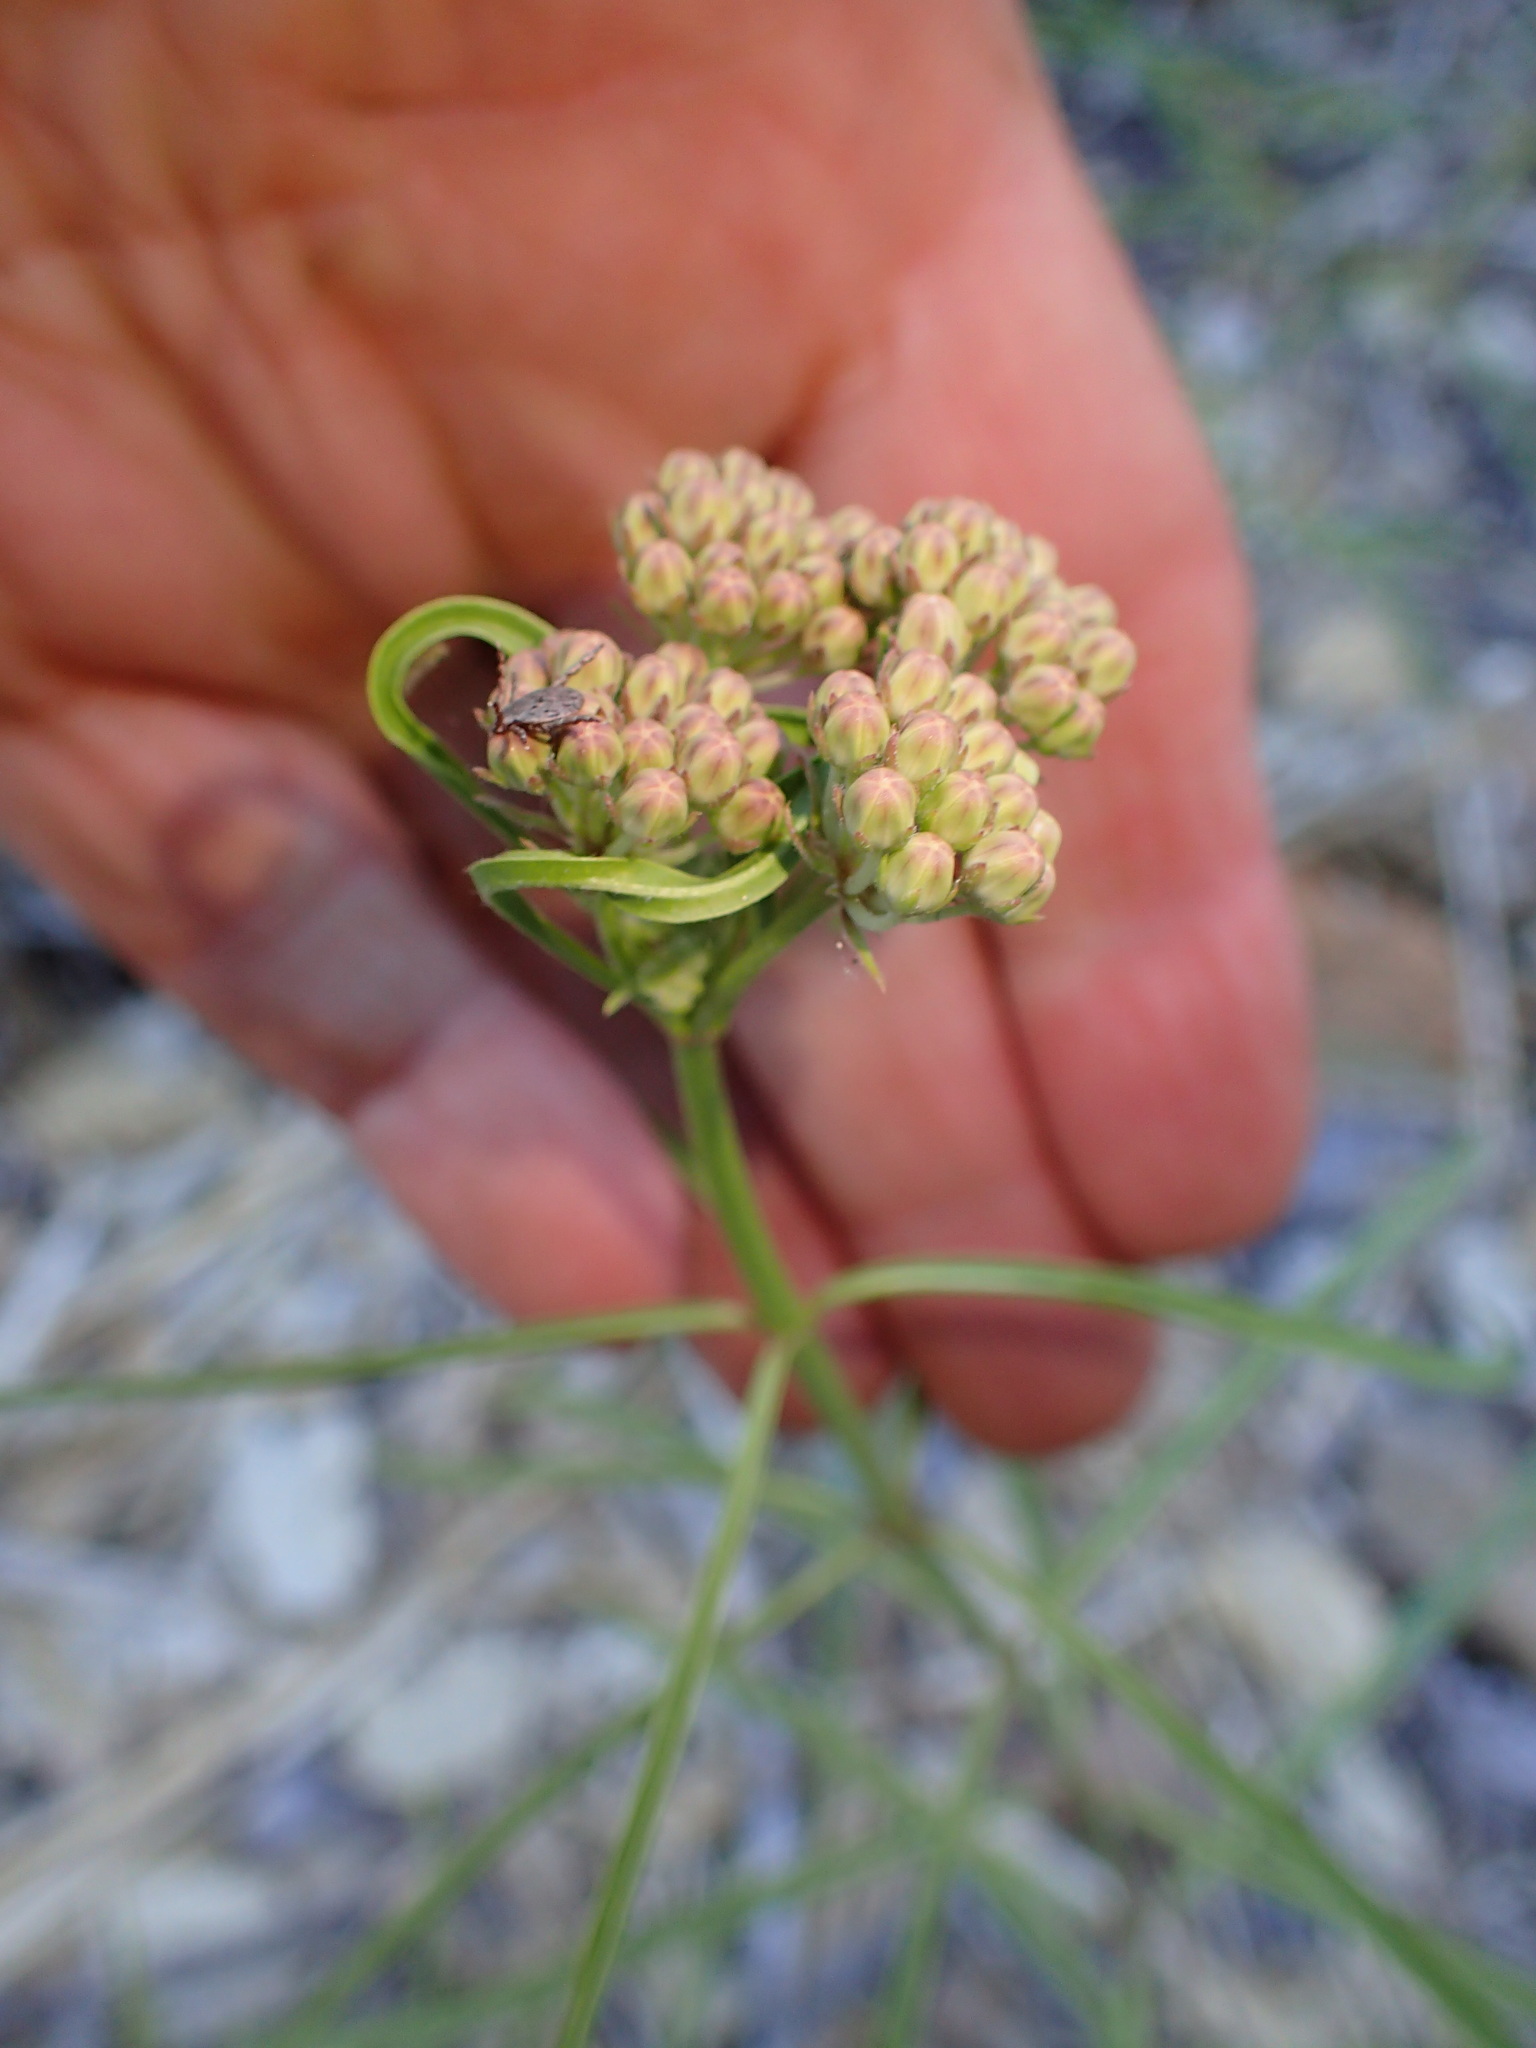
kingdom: Animalia
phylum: Arthropoda
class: Arachnida
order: Ixodida
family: Ixodidae
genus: Dermacentor
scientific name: Dermacentor occidentalis
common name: Net tick
